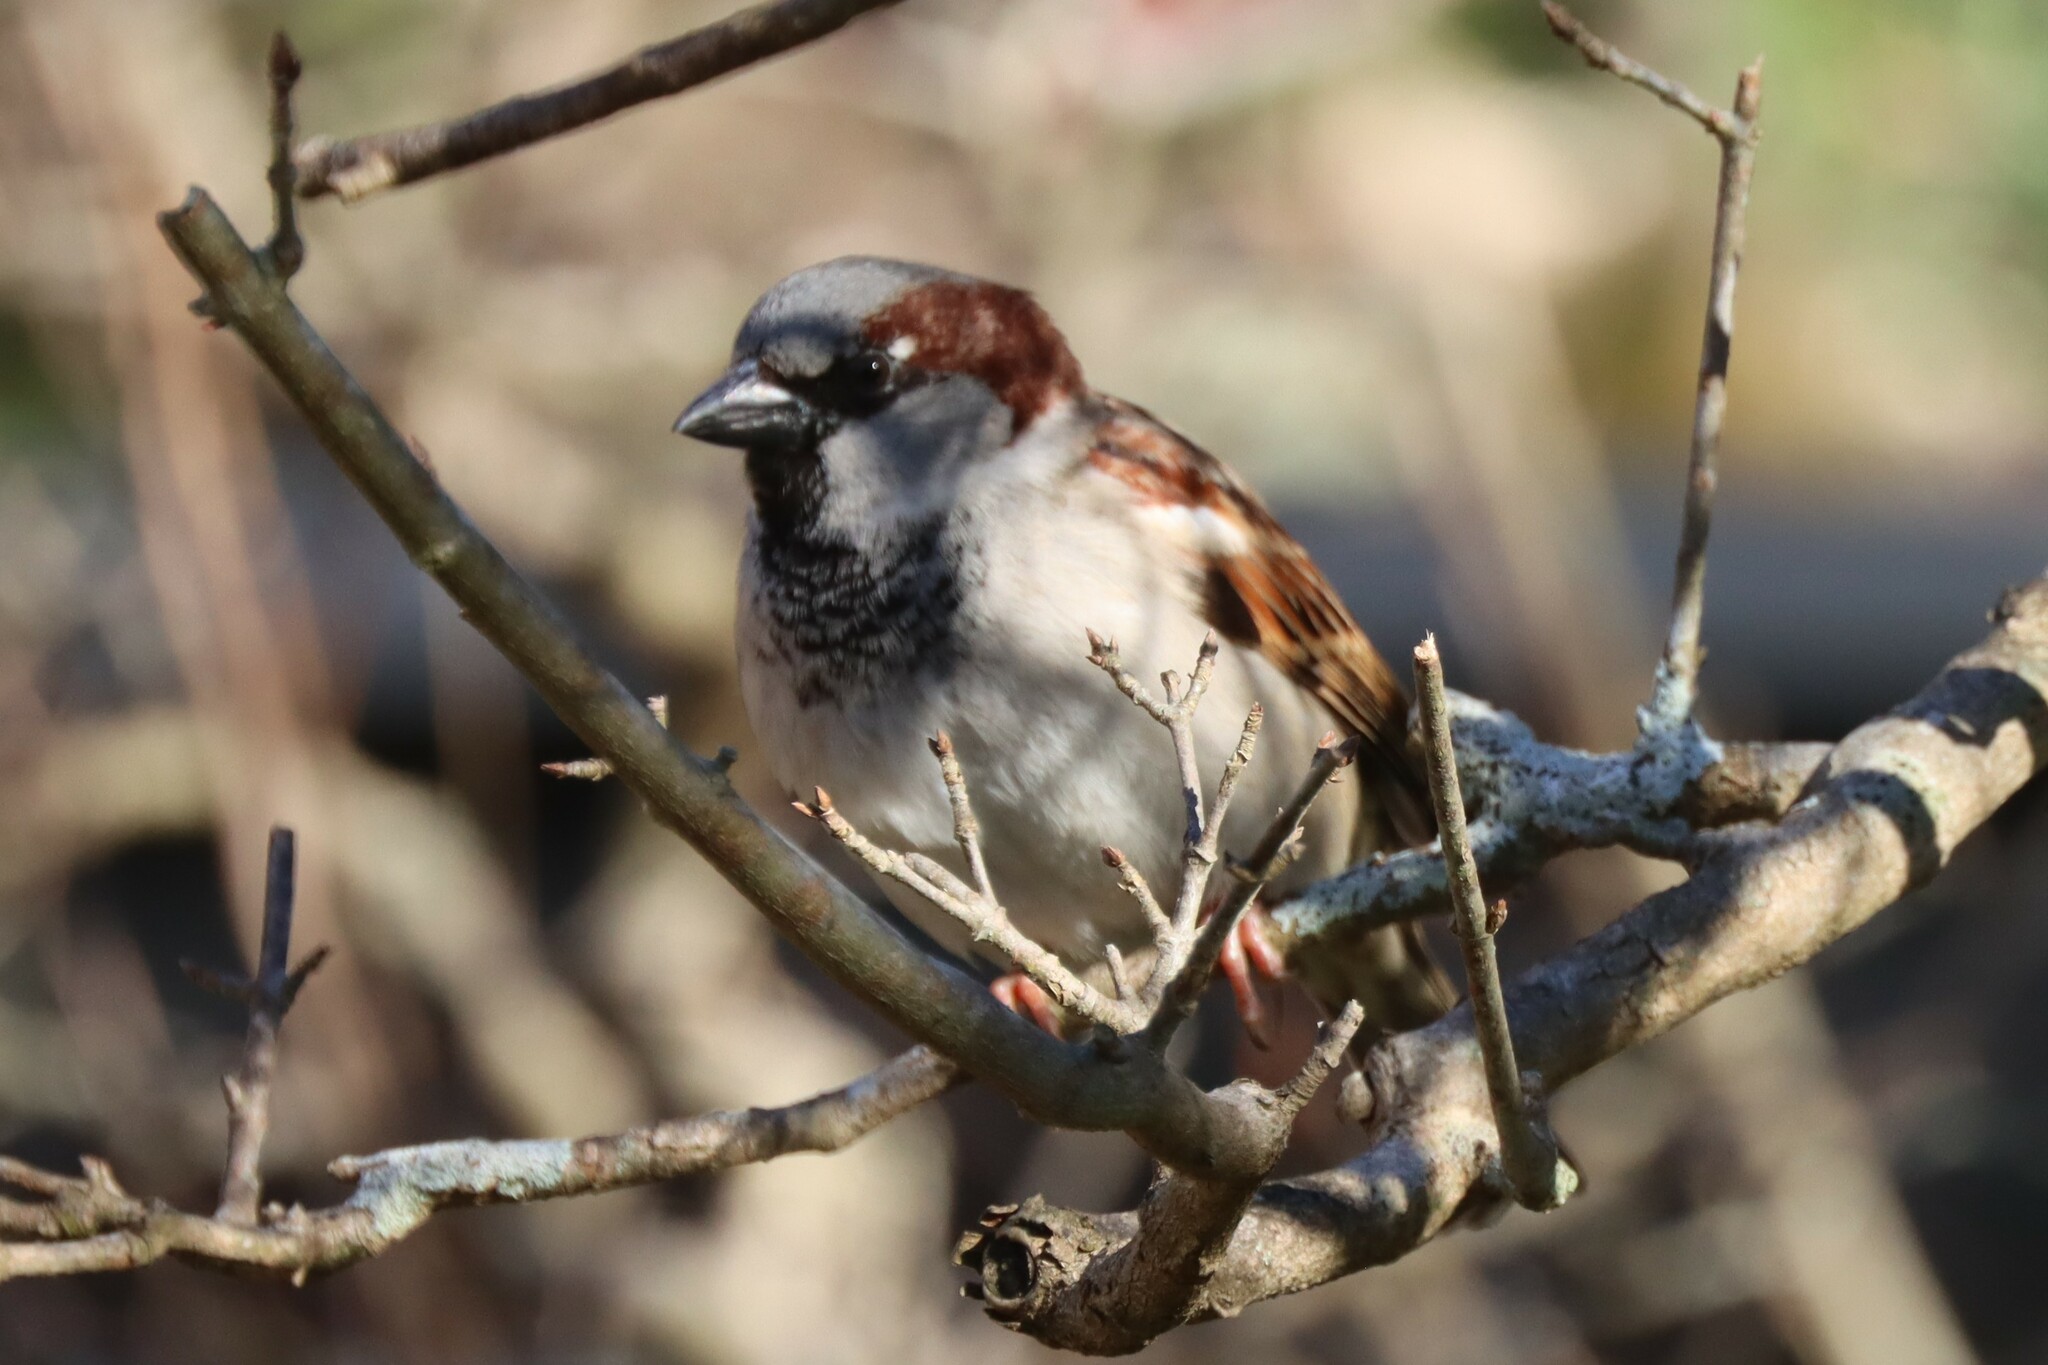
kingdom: Animalia
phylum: Chordata
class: Aves
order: Passeriformes
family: Passeridae
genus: Passer
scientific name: Passer domesticus
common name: House sparrow
